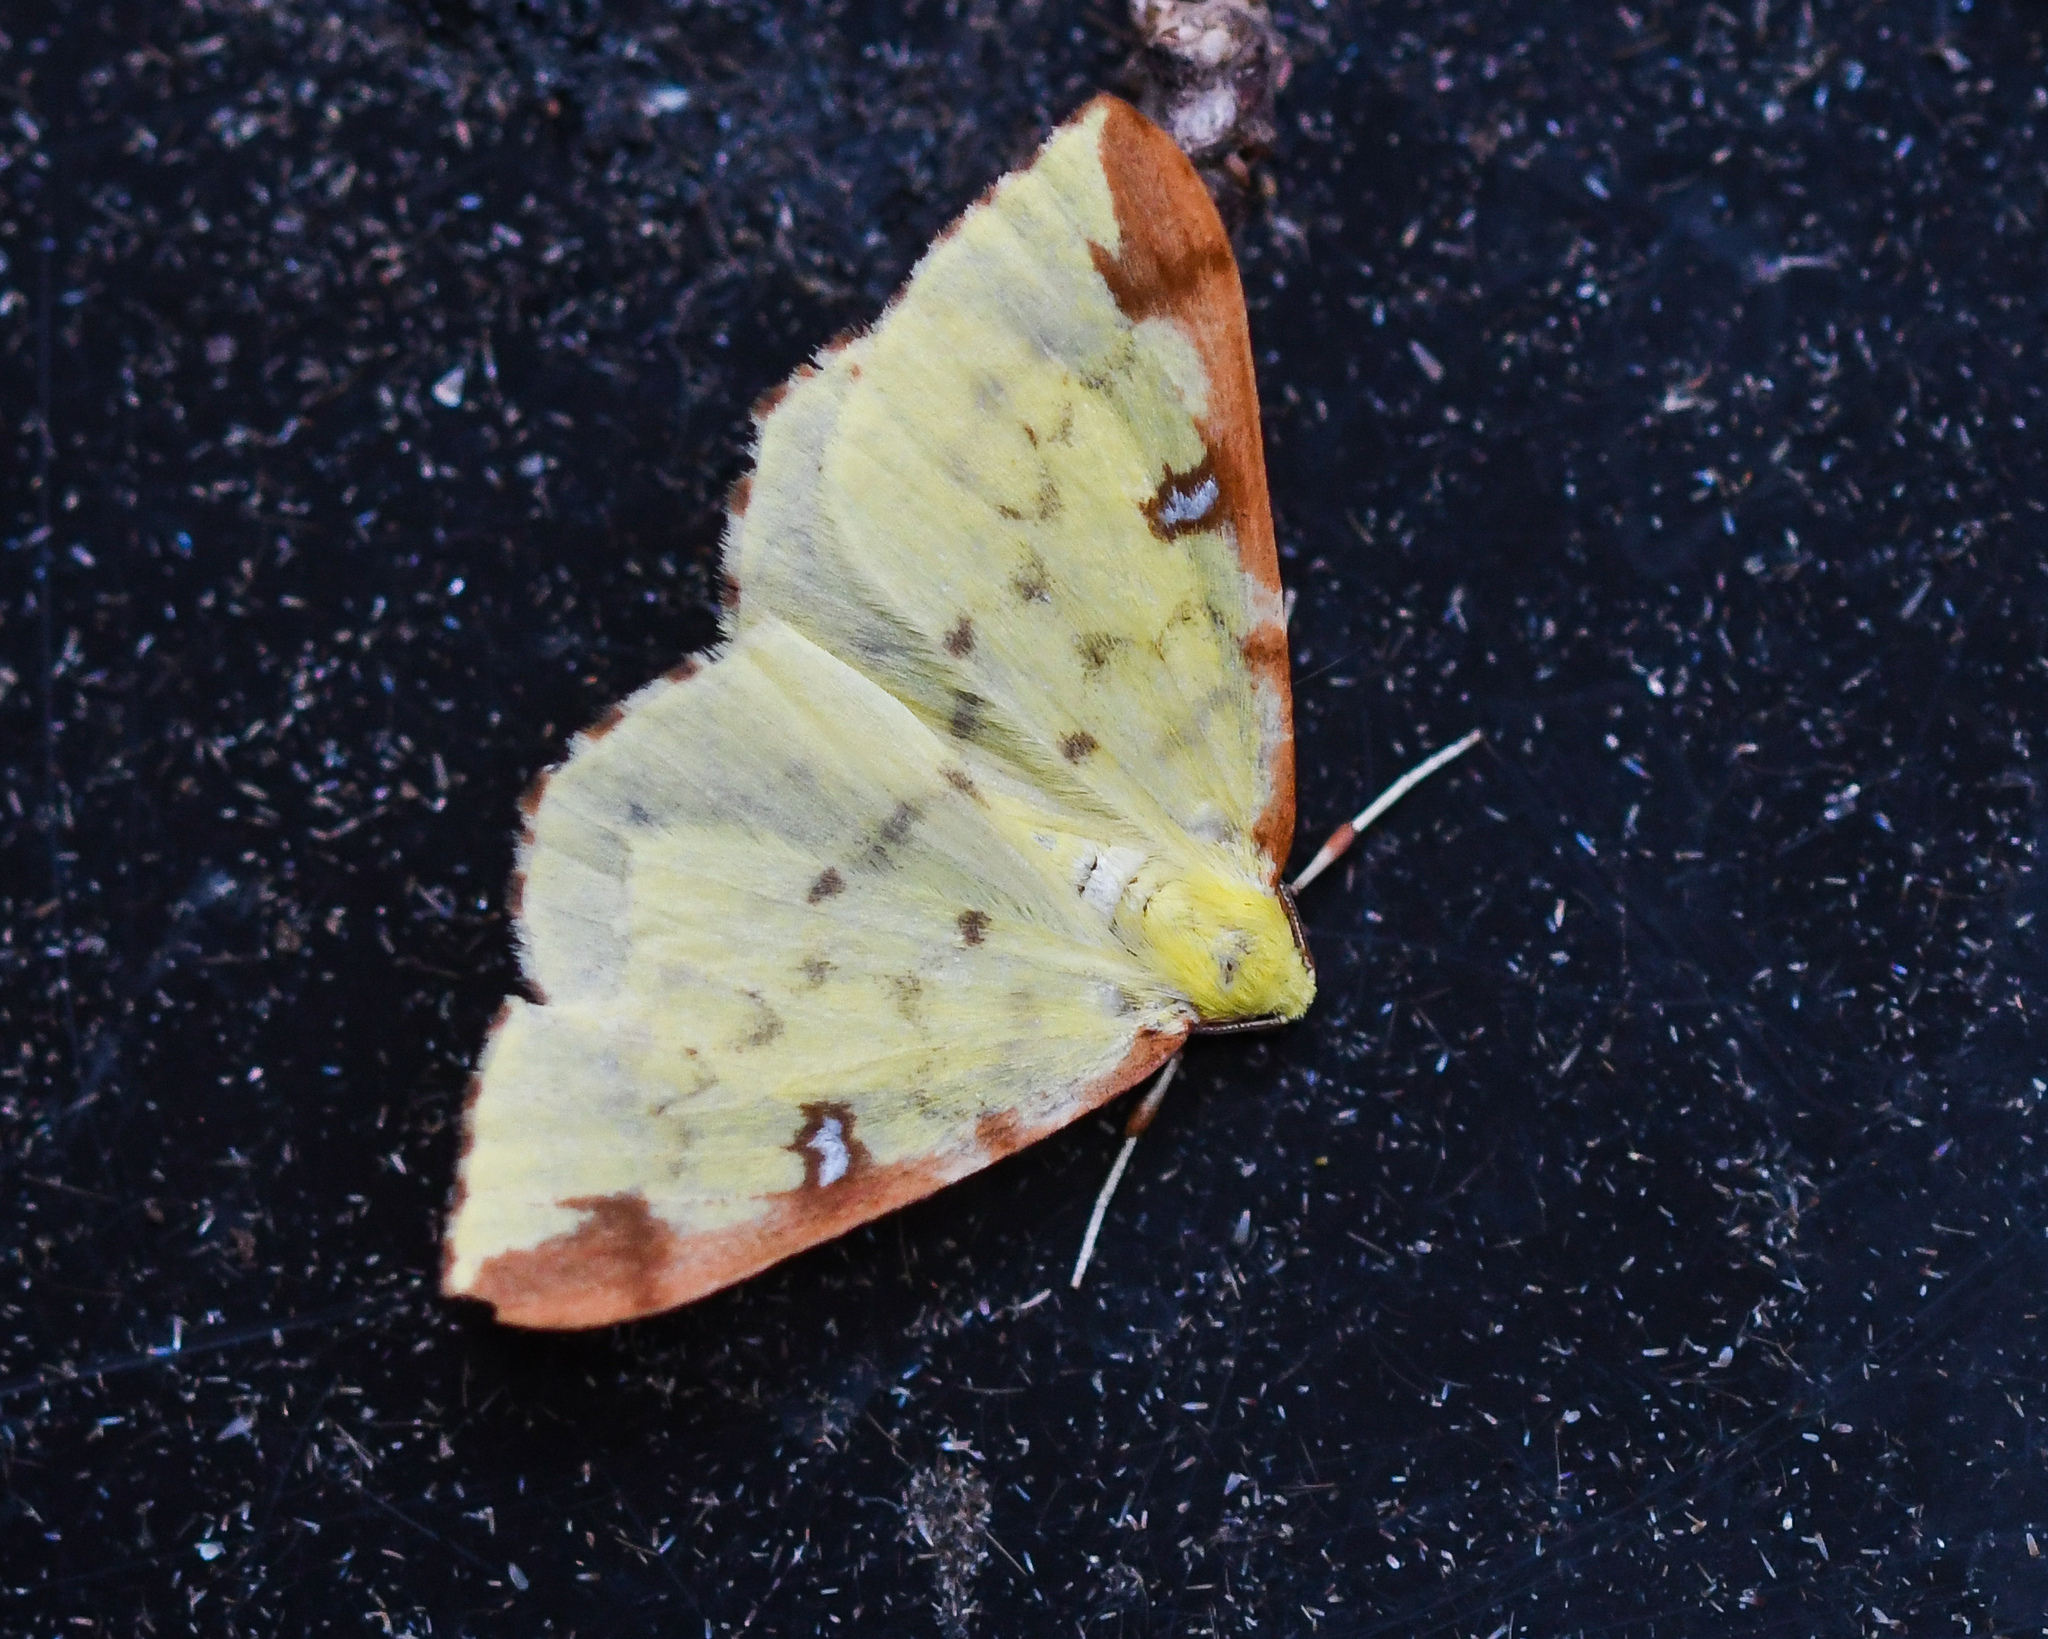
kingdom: Animalia
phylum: Arthropoda
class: Insecta
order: Lepidoptera
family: Geometridae
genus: Opisthograptis
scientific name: Opisthograptis luteolata
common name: Brimstone moth
